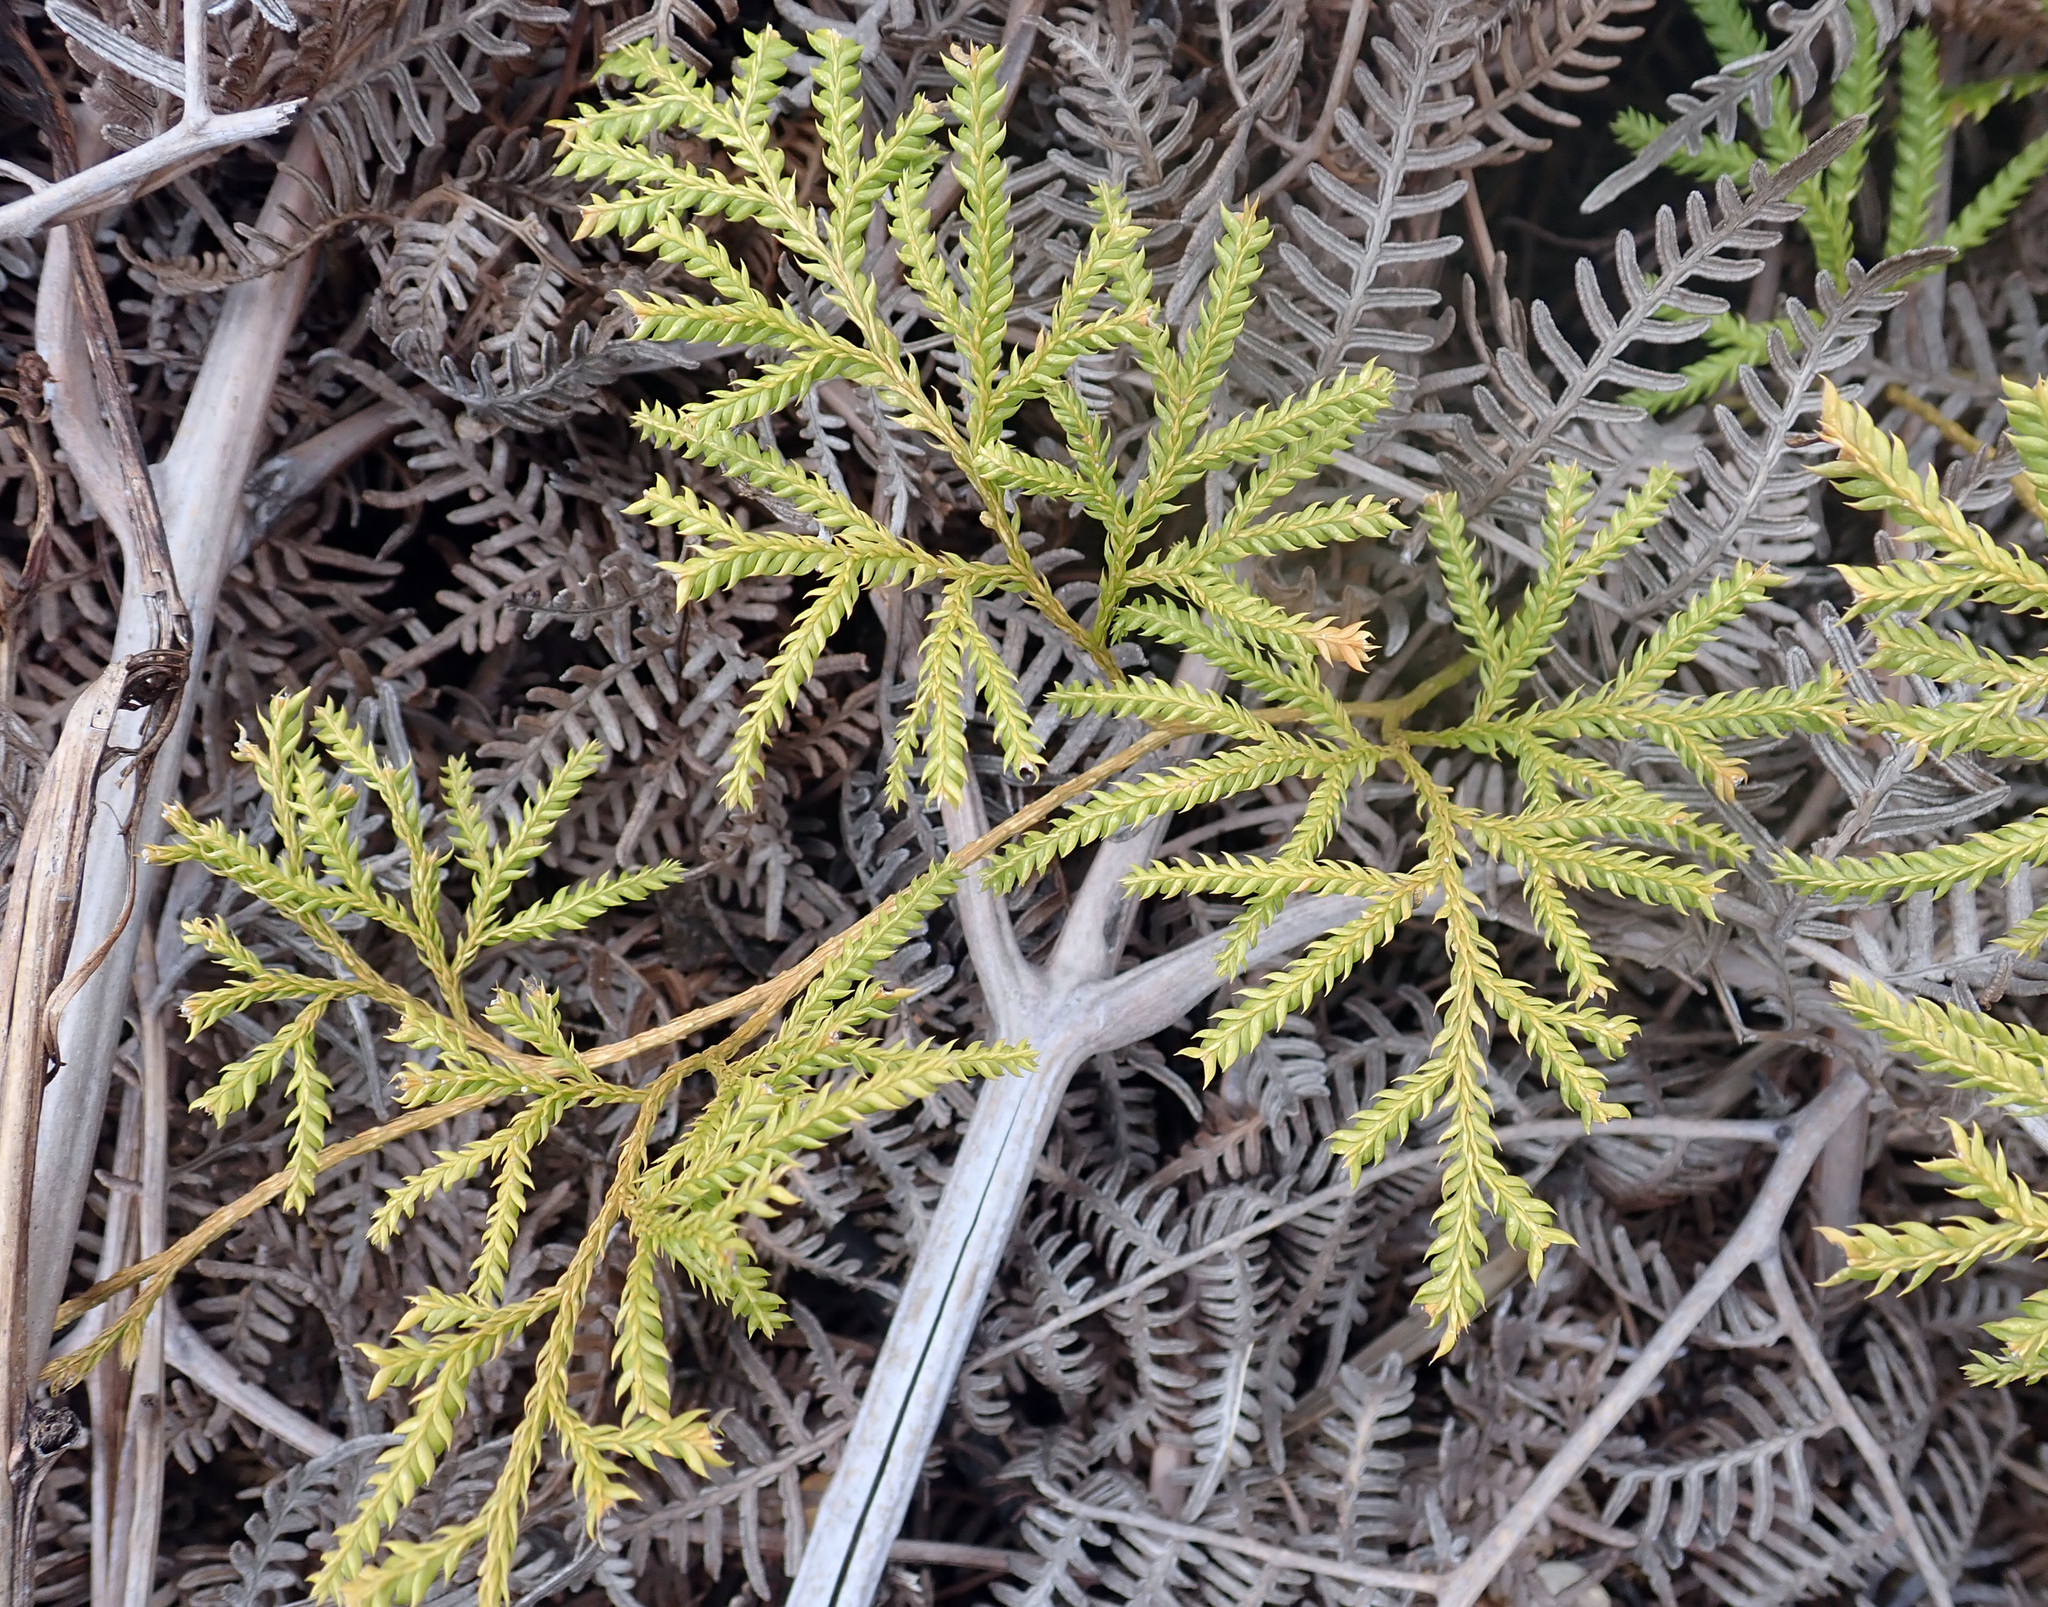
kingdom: Plantae
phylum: Tracheophyta
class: Lycopodiopsida
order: Lycopodiales
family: Lycopodiaceae
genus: Lycopodium
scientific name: Lycopodium volubile
